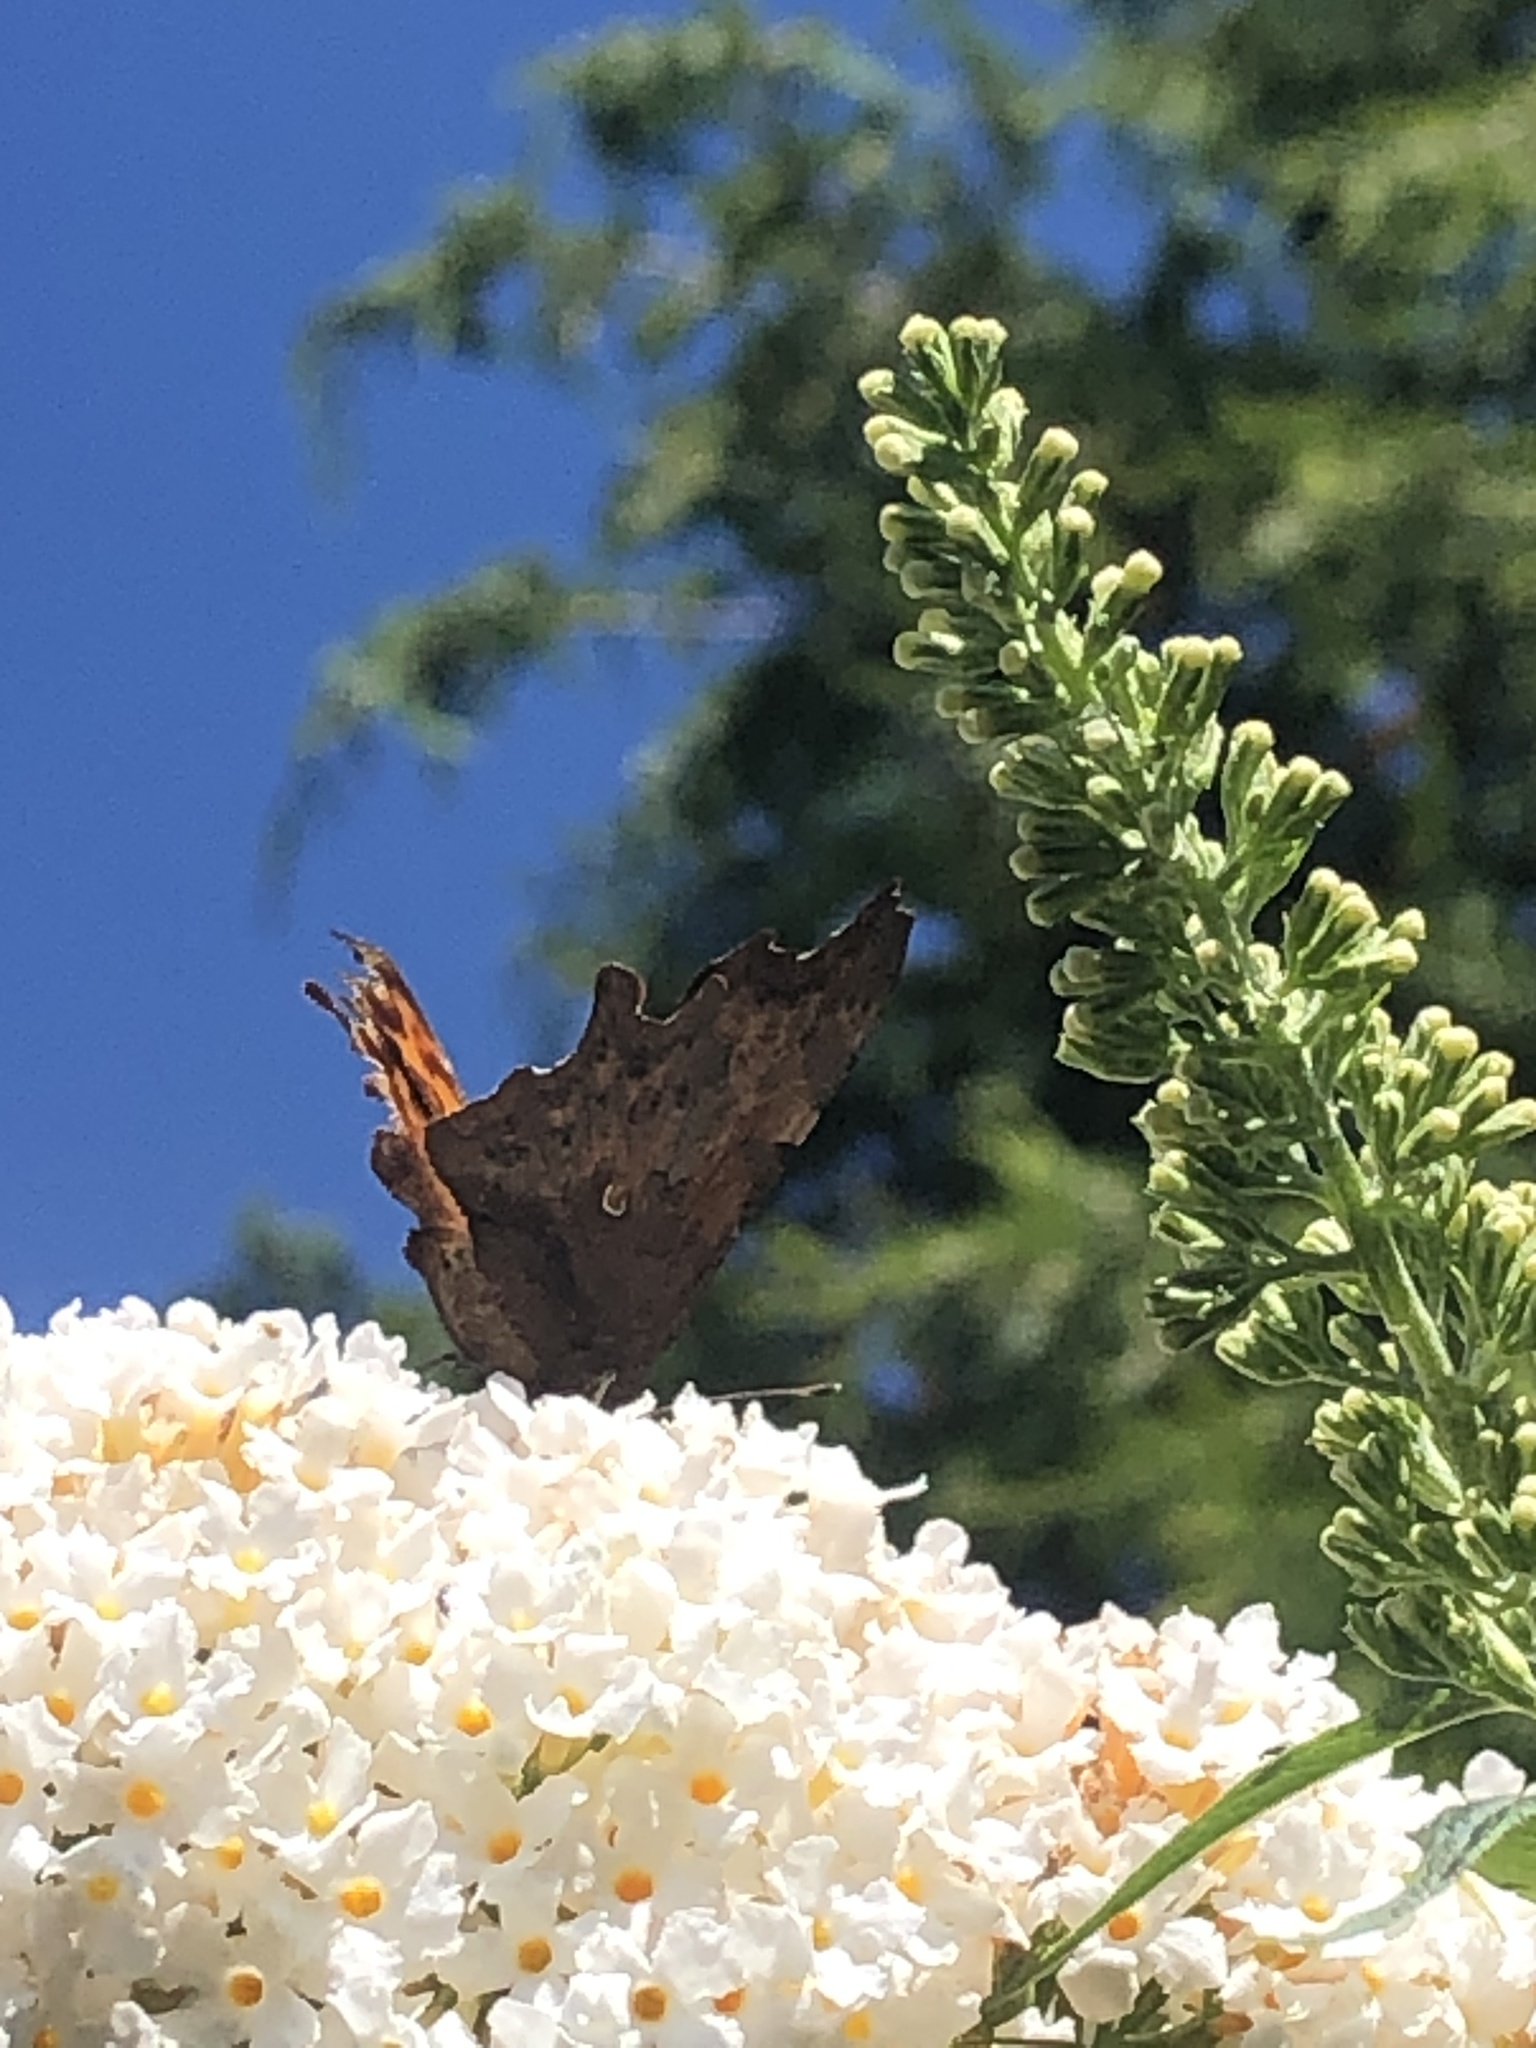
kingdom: Animalia
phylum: Arthropoda
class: Insecta
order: Lepidoptera
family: Nymphalidae
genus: Polygonia
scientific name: Polygonia c-album
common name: Comma
